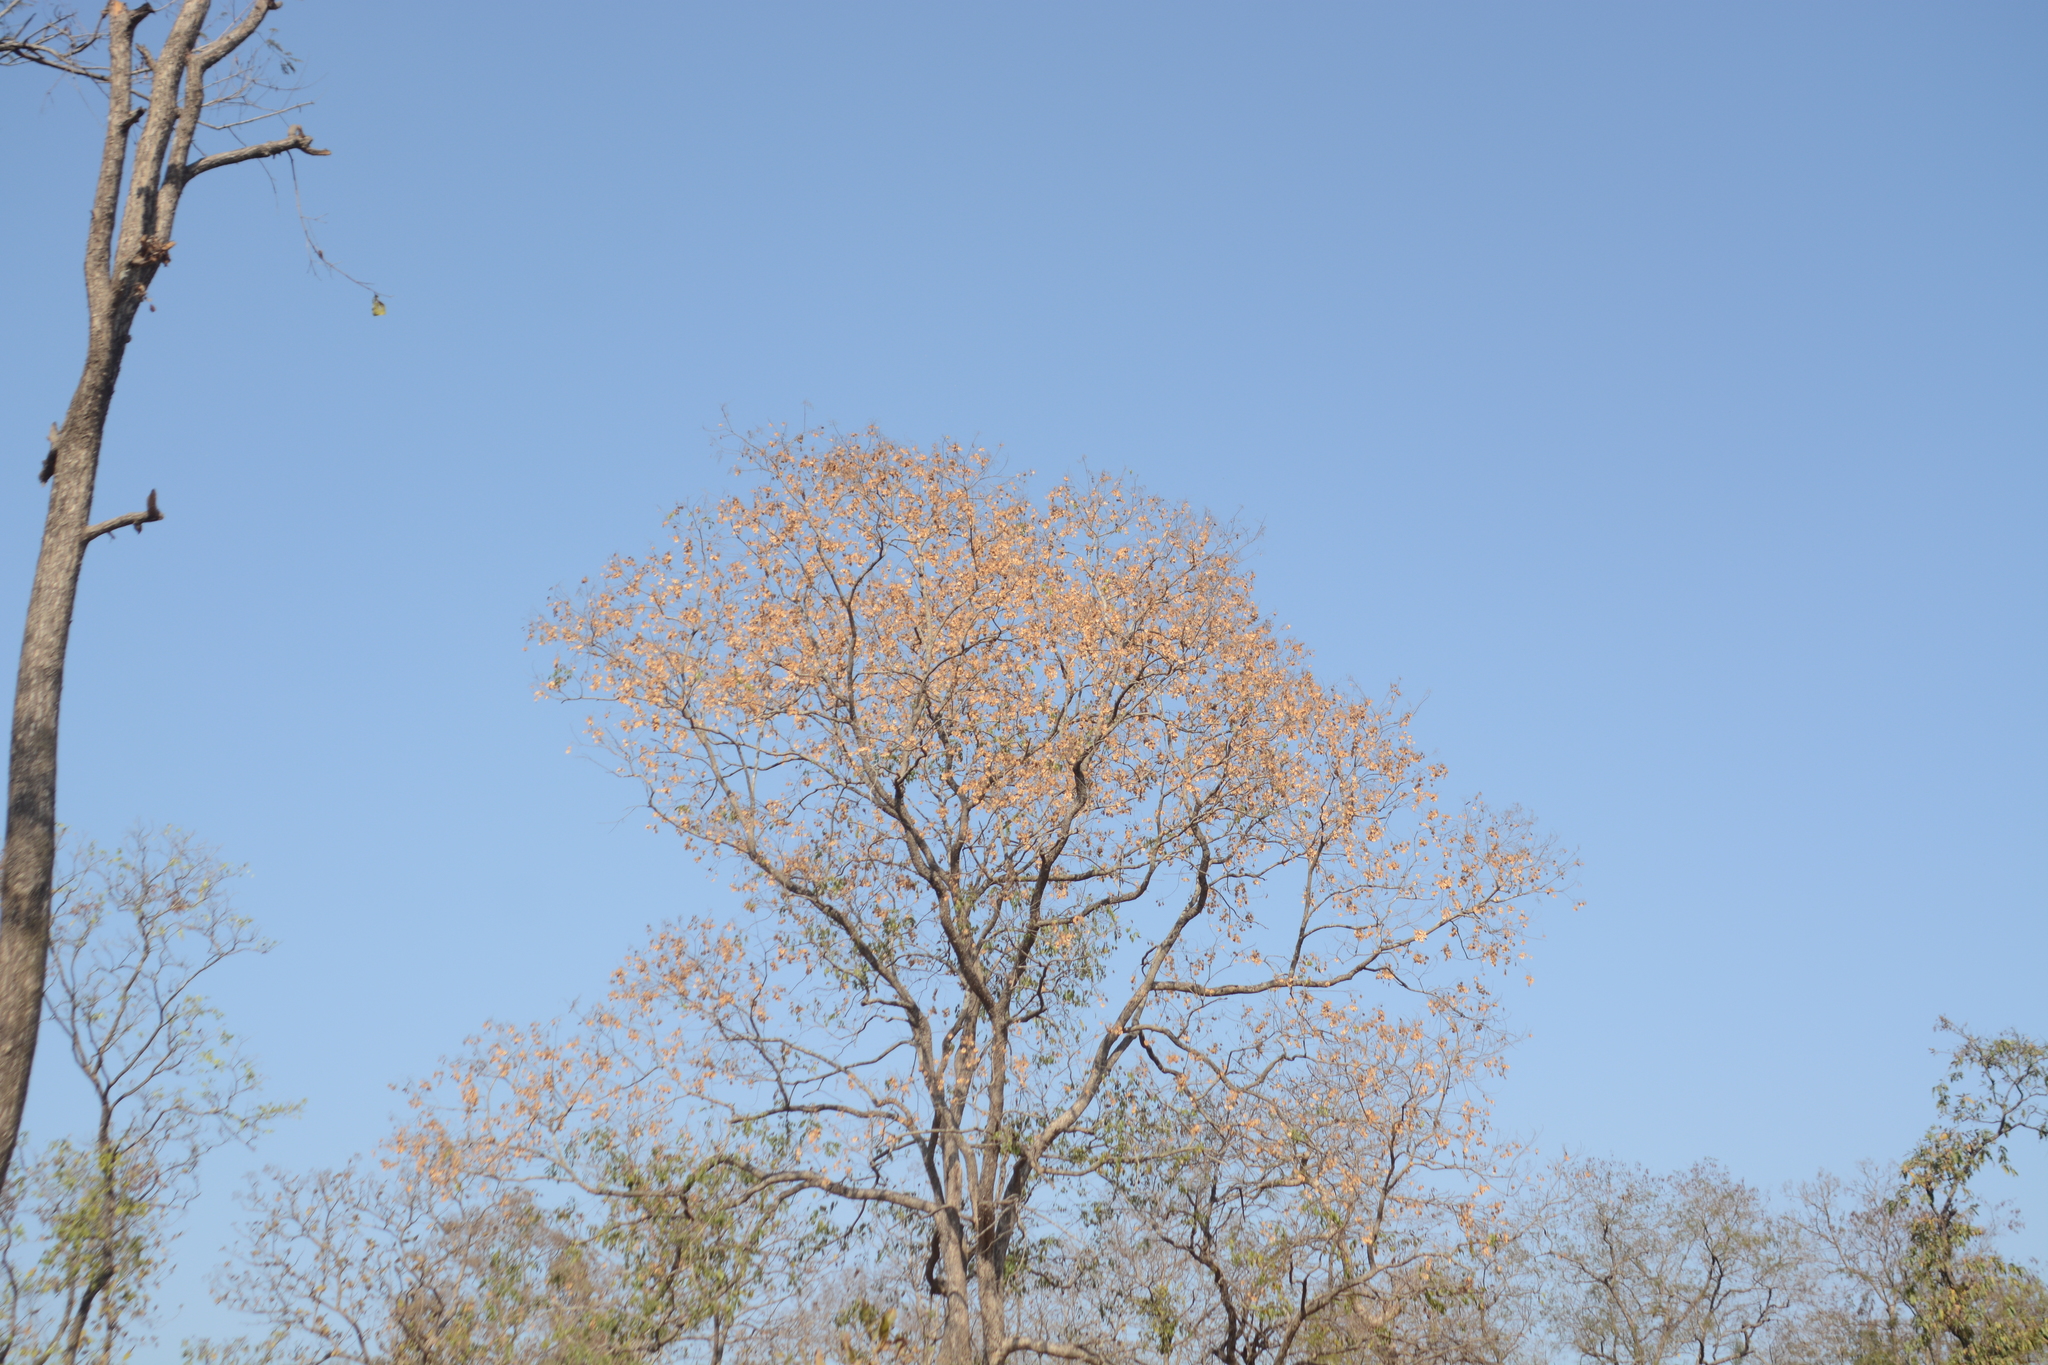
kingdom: Plantae
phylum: Tracheophyta
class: Magnoliopsida
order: Fabales
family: Fabaceae
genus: Pterocarpus
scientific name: Pterocarpus marsupium
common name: East indian/malabar kino
